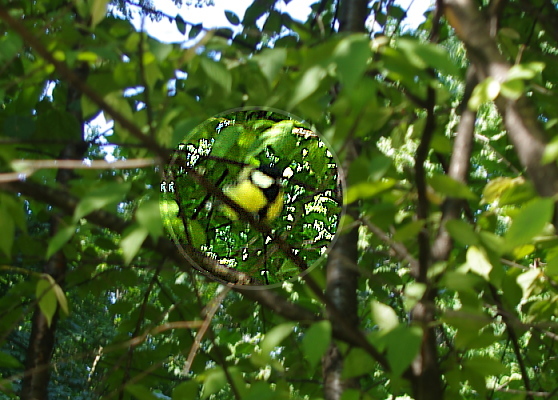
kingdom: Animalia
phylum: Chordata
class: Aves
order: Passeriformes
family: Paridae
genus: Parus
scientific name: Parus major
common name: Great tit
